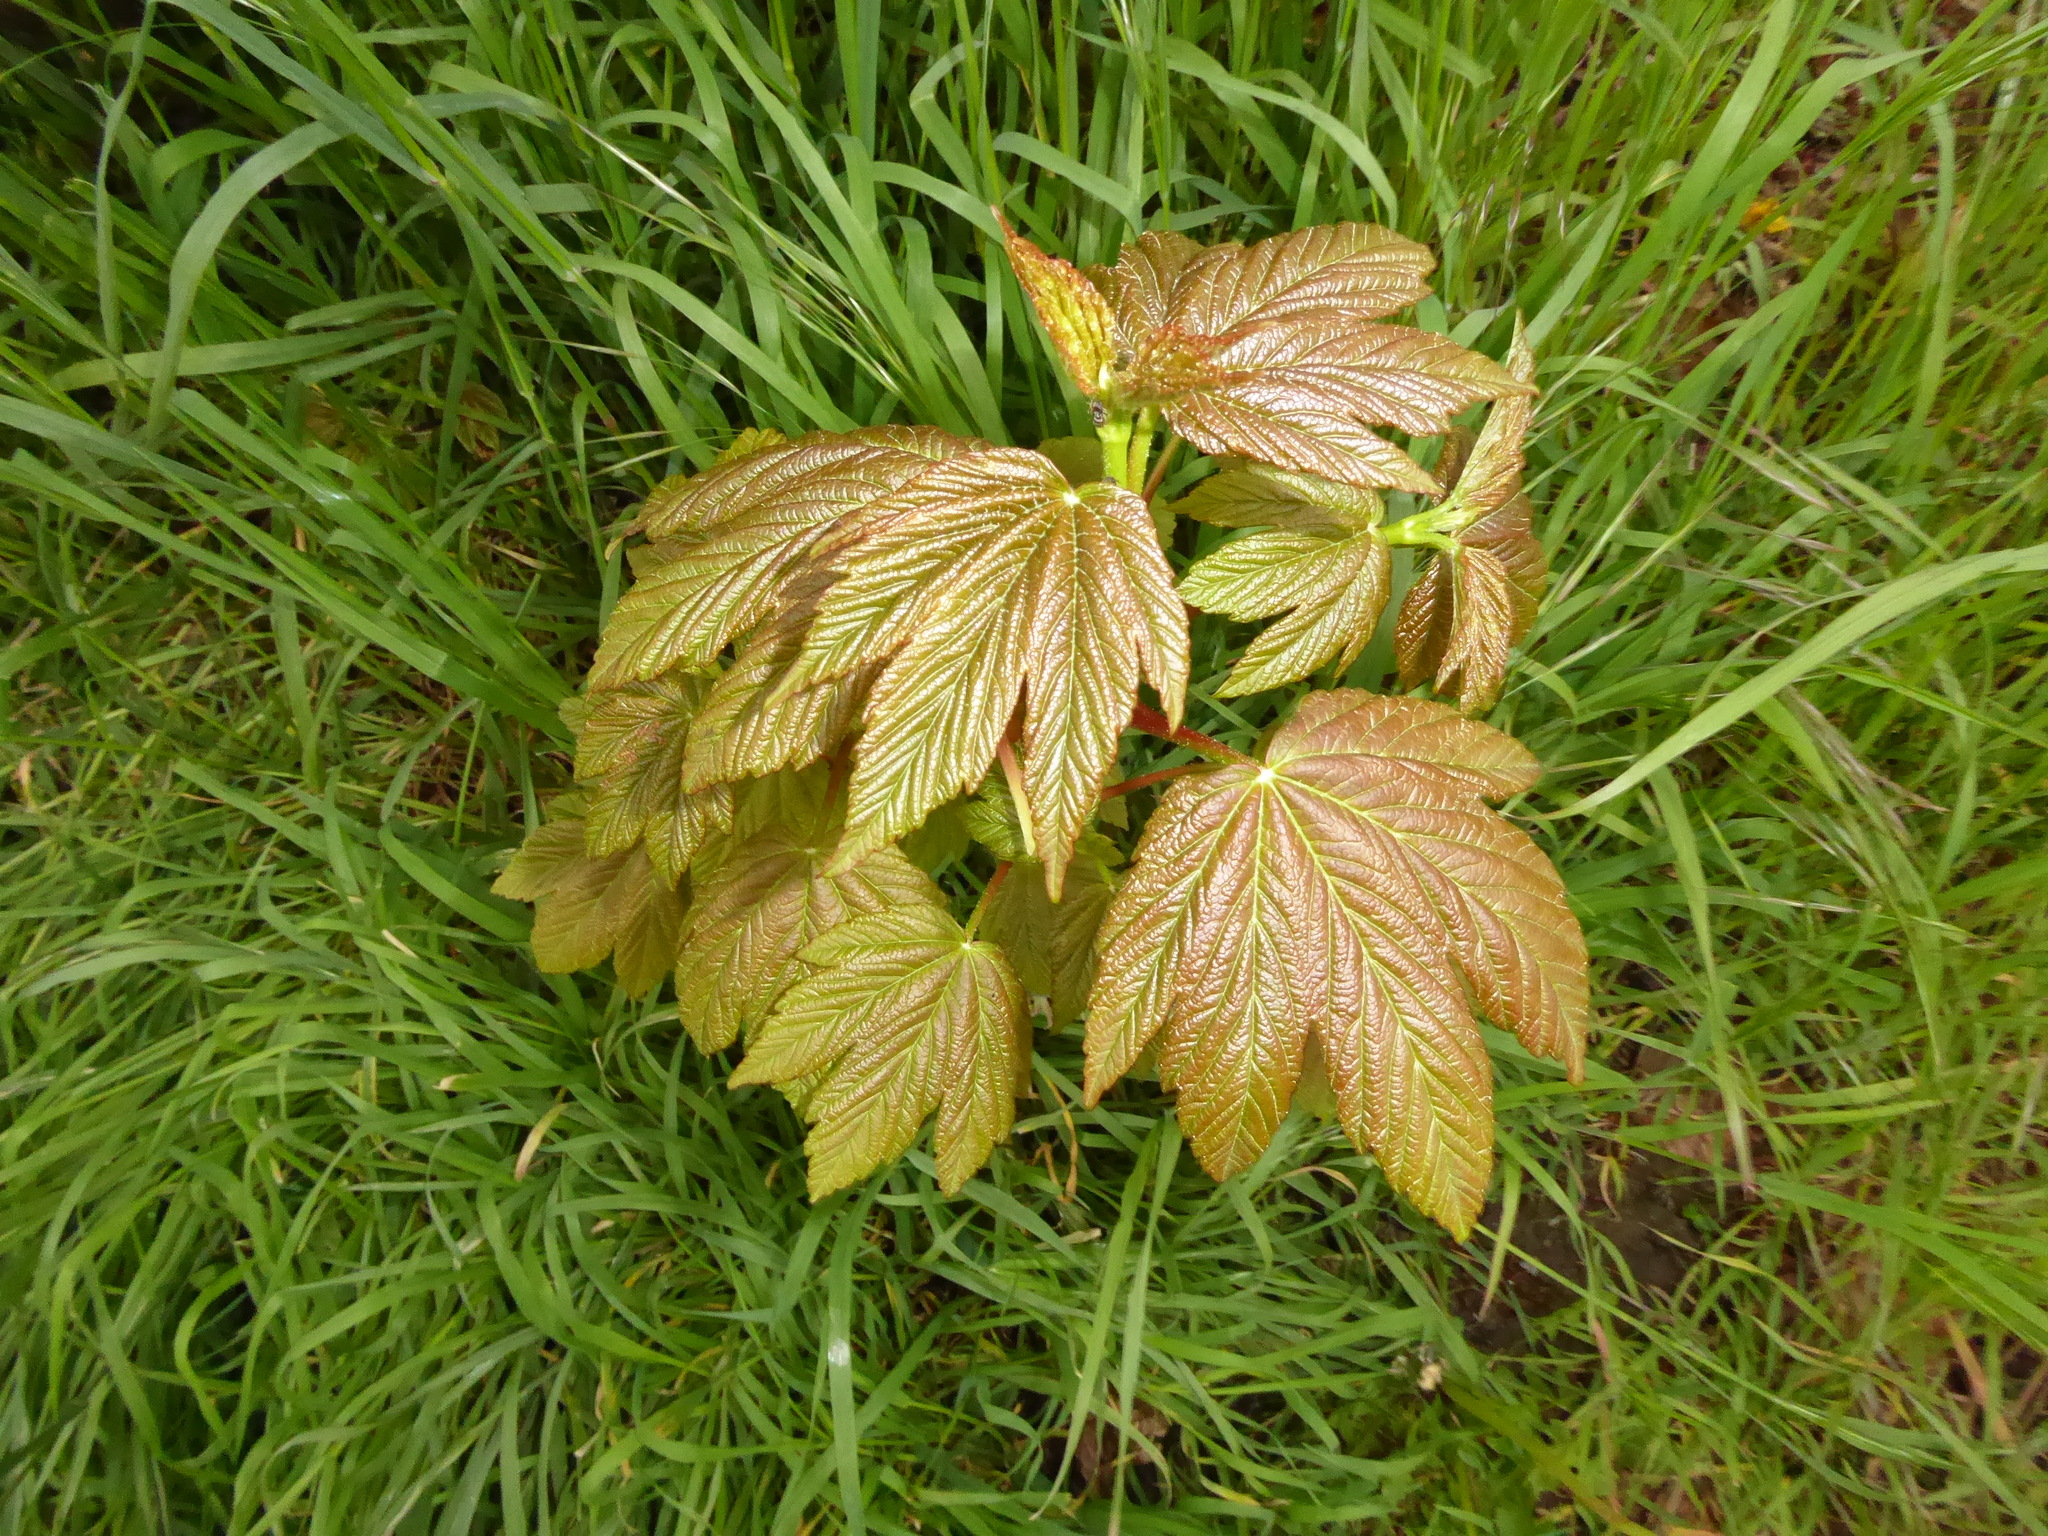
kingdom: Plantae
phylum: Tracheophyta
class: Magnoliopsida
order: Sapindales
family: Sapindaceae
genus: Acer
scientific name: Acer pseudoplatanus
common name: Sycamore
